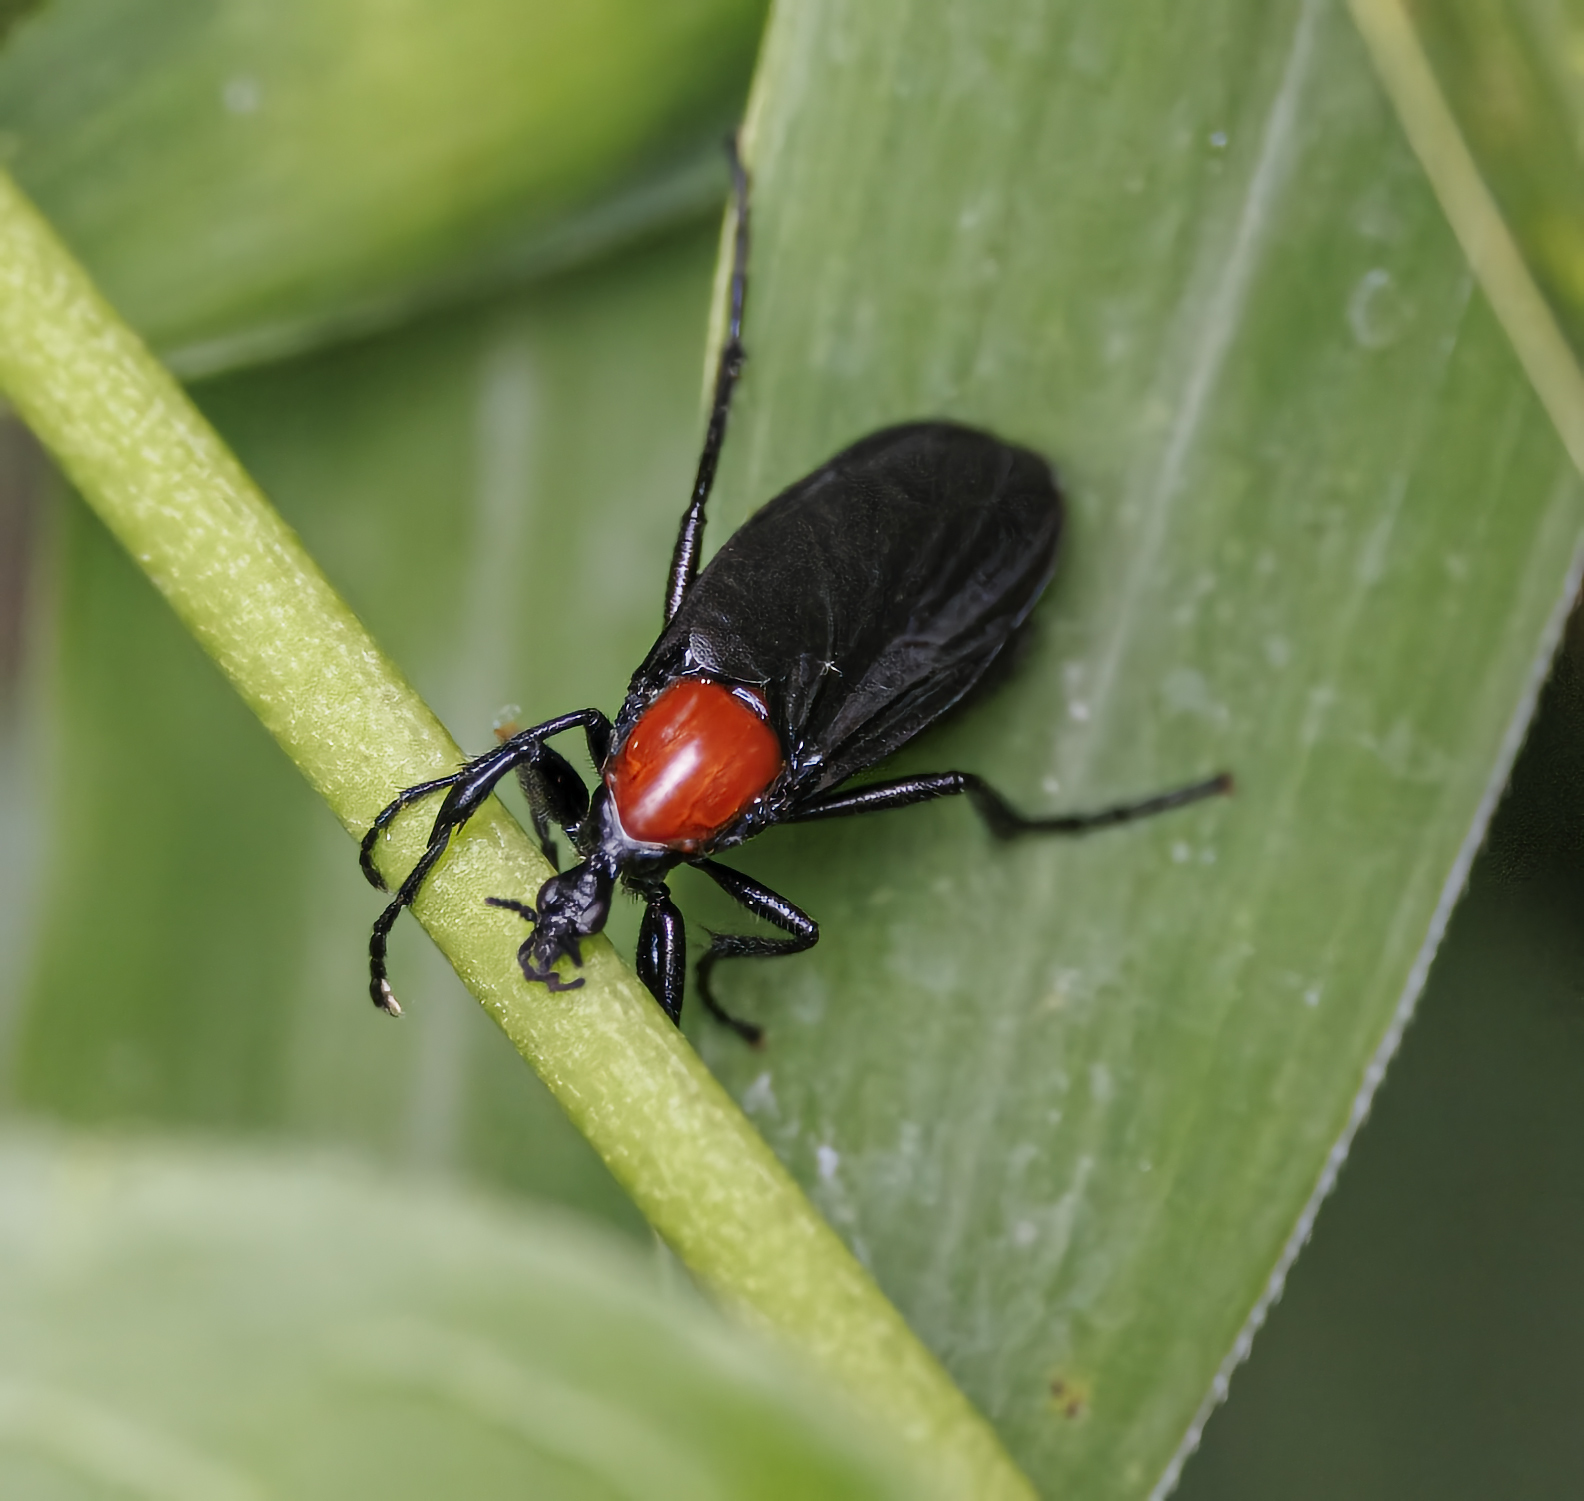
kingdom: Animalia
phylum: Arthropoda
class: Insecta
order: Diptera
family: Bibionidae
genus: Bibio
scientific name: Bibio superfluus
